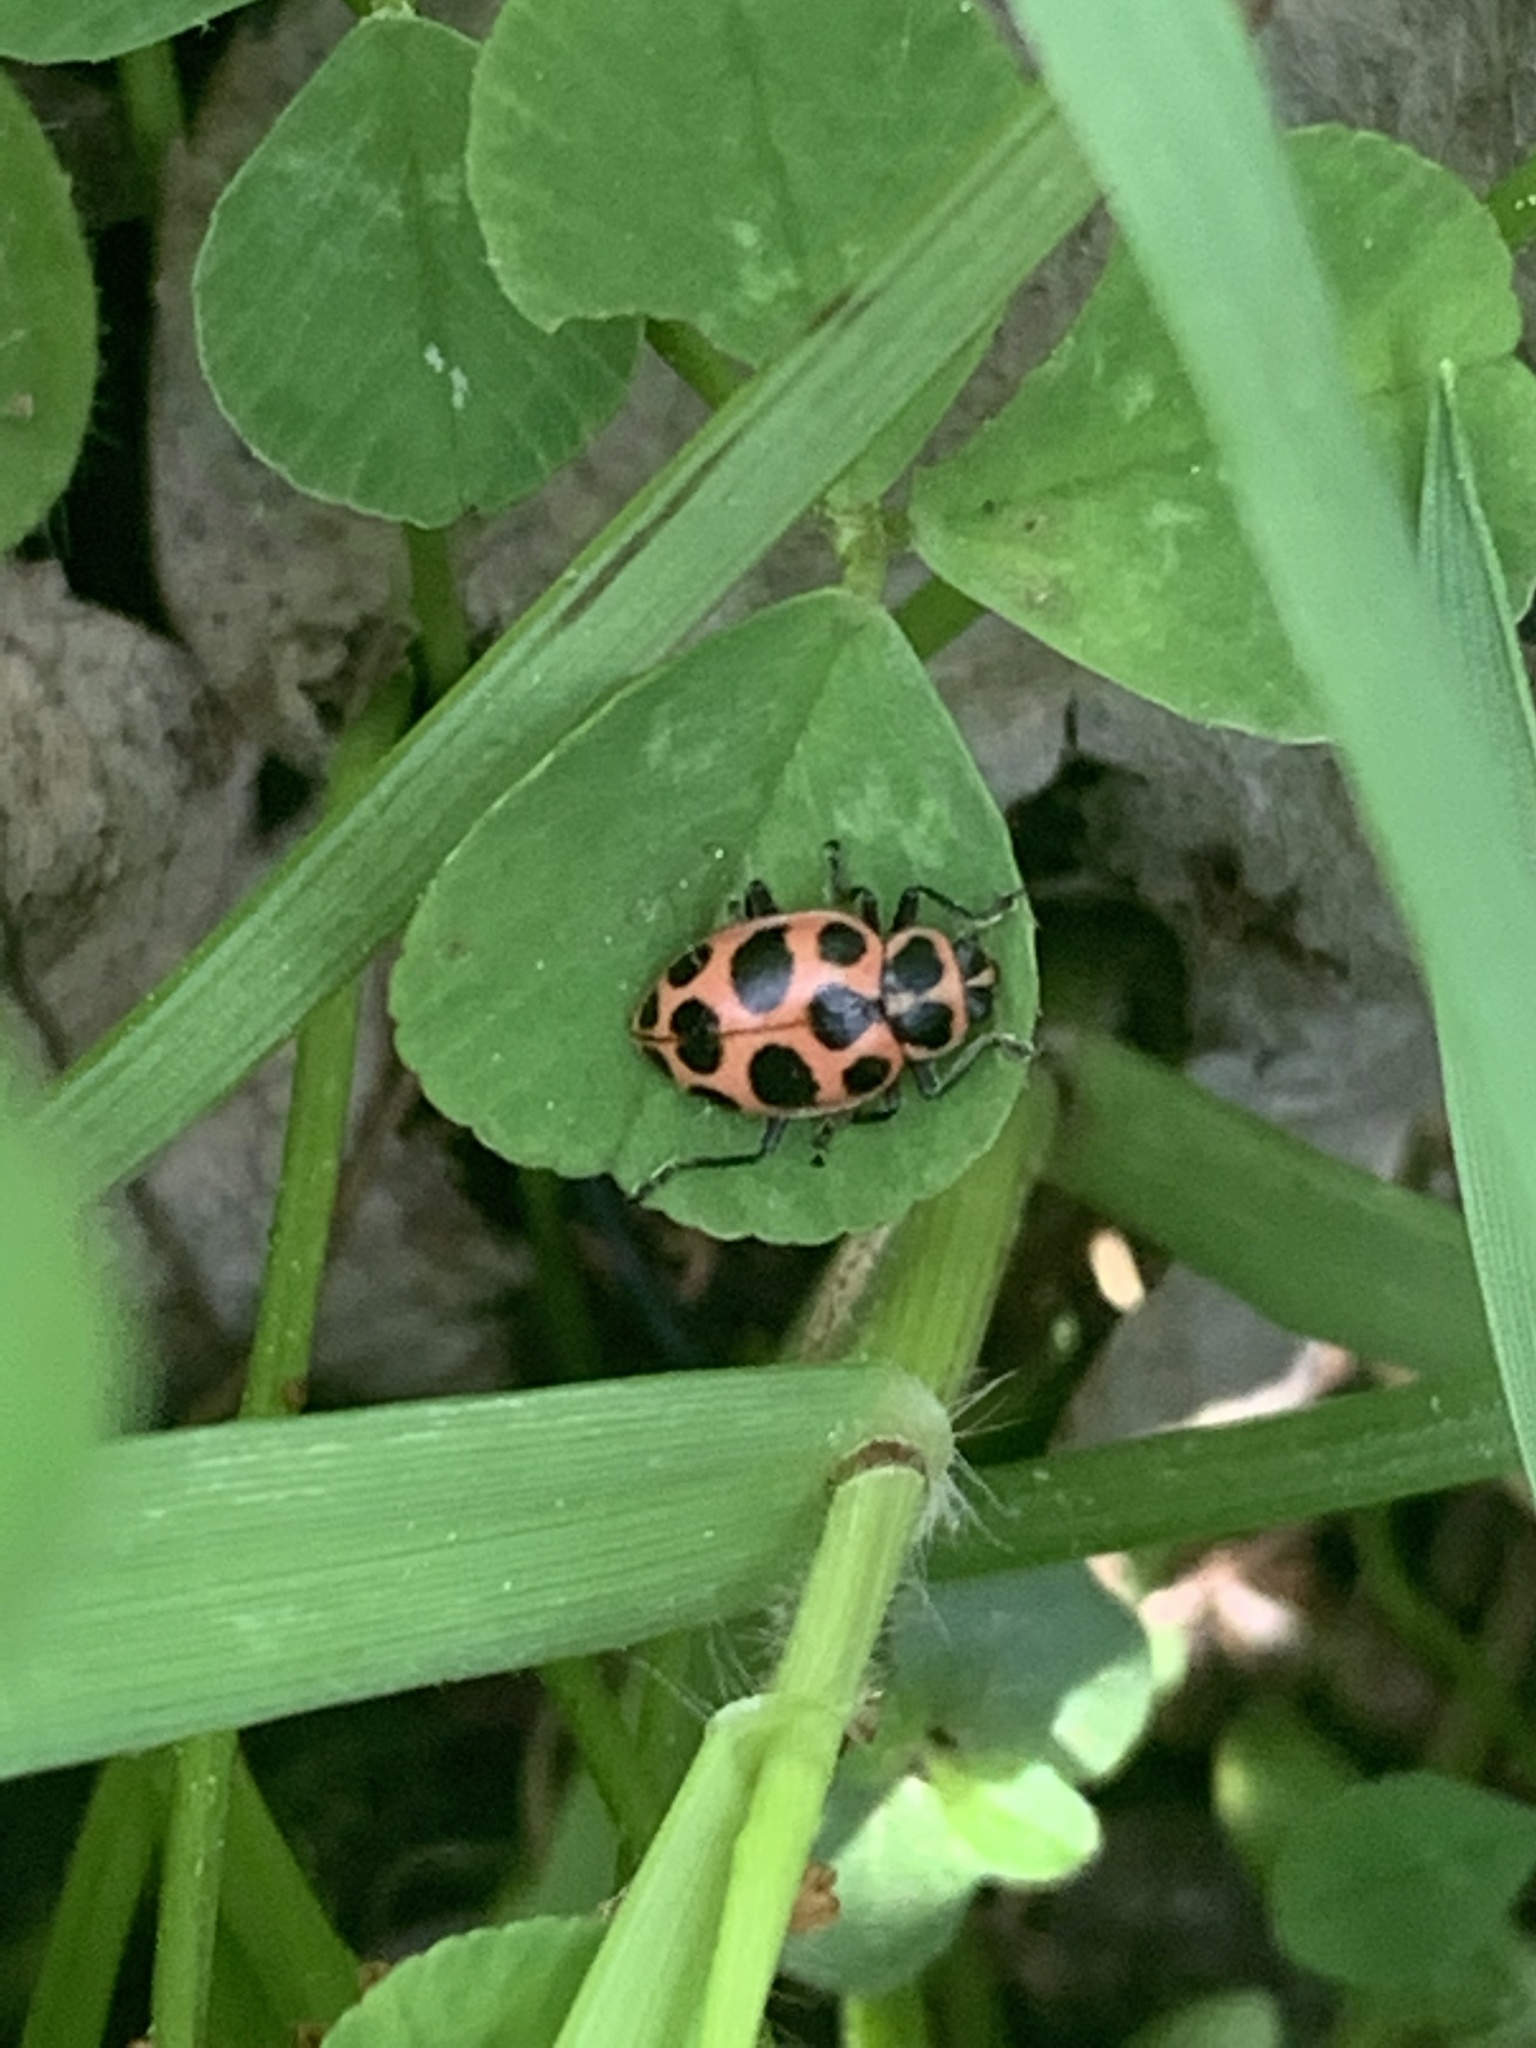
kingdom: Animalia
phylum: Arthropoda
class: Insecta
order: Coleoptera
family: Coccinellidae
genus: Coleomegilla
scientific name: Coleomegilla maculata
